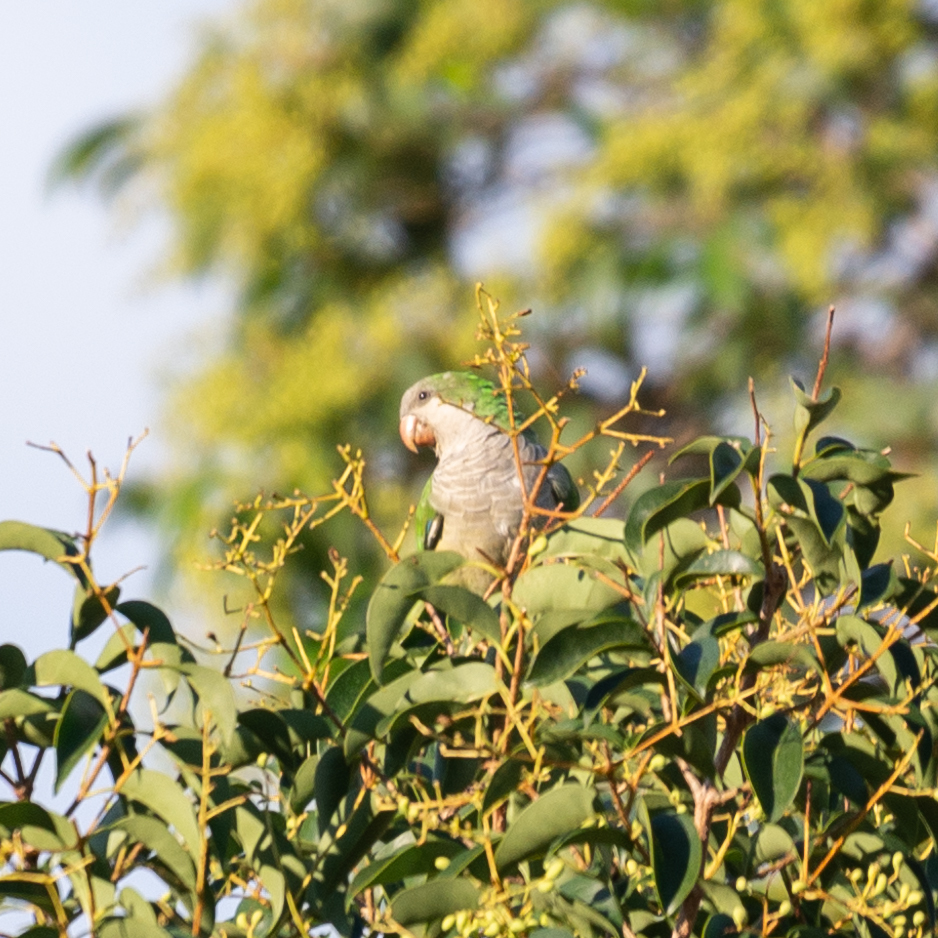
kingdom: Animalia
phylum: Chordata
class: Aves
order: Psittaciformes
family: Psittacidae
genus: Myiopsitta
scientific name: Myiopsitta monachus
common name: Monk parakeet
